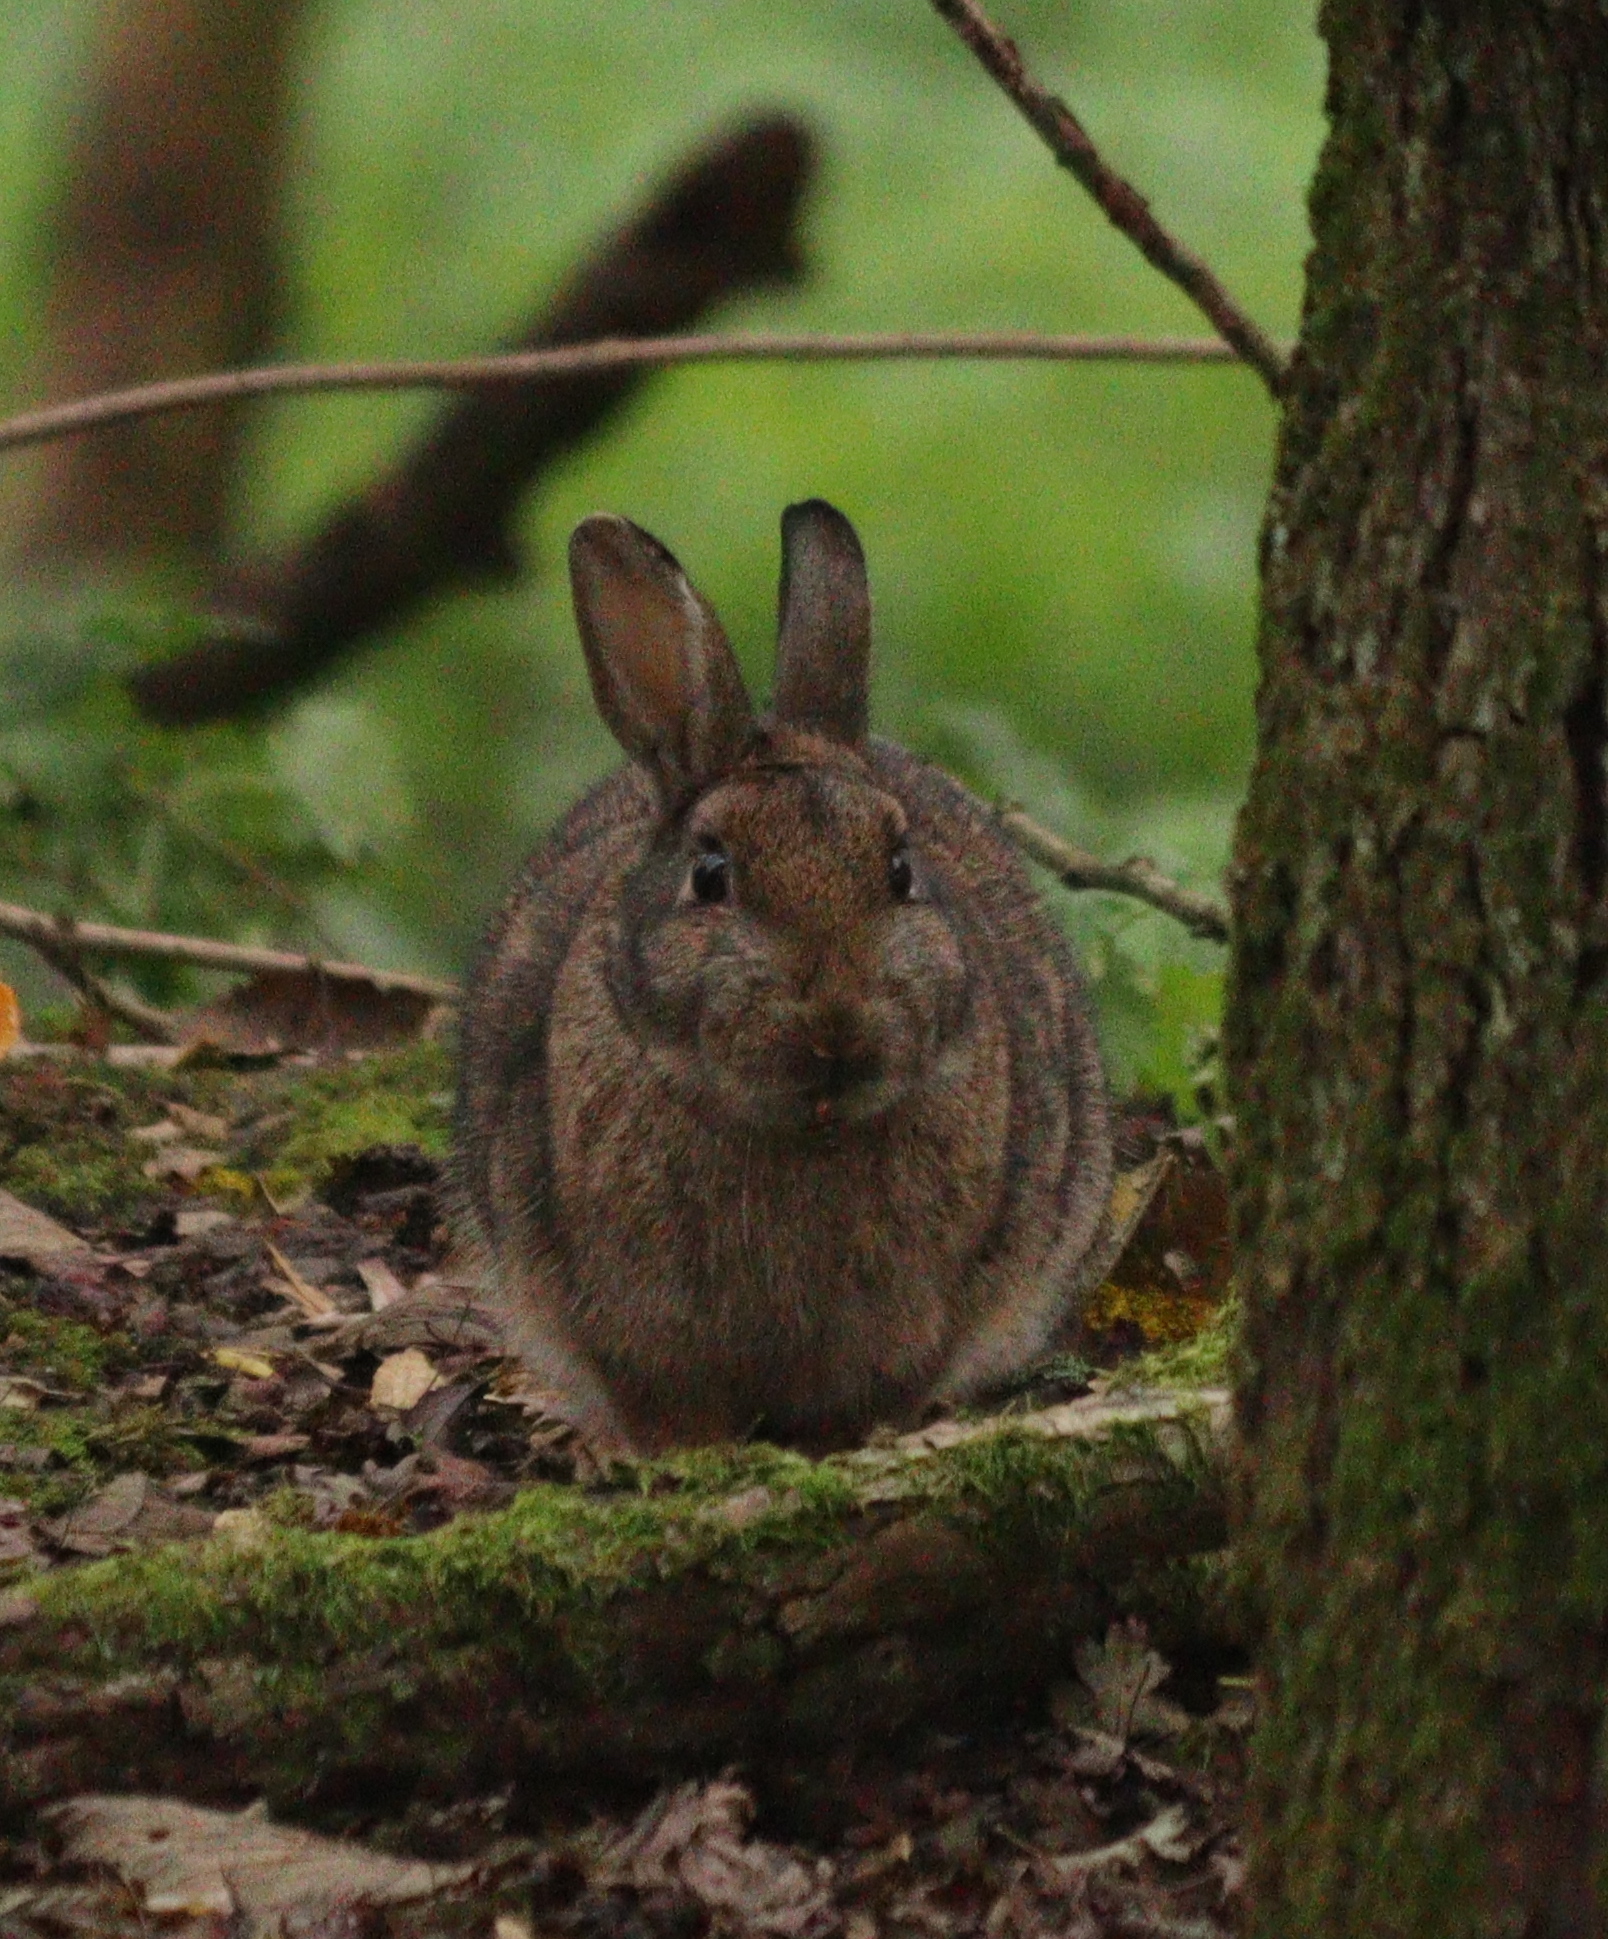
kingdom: Animalia
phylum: Chordata
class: Mammalia
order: Lagomorpha
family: Leporidae
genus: Oryctolagus
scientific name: Oryctolagus cuniculus
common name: European rabbit
